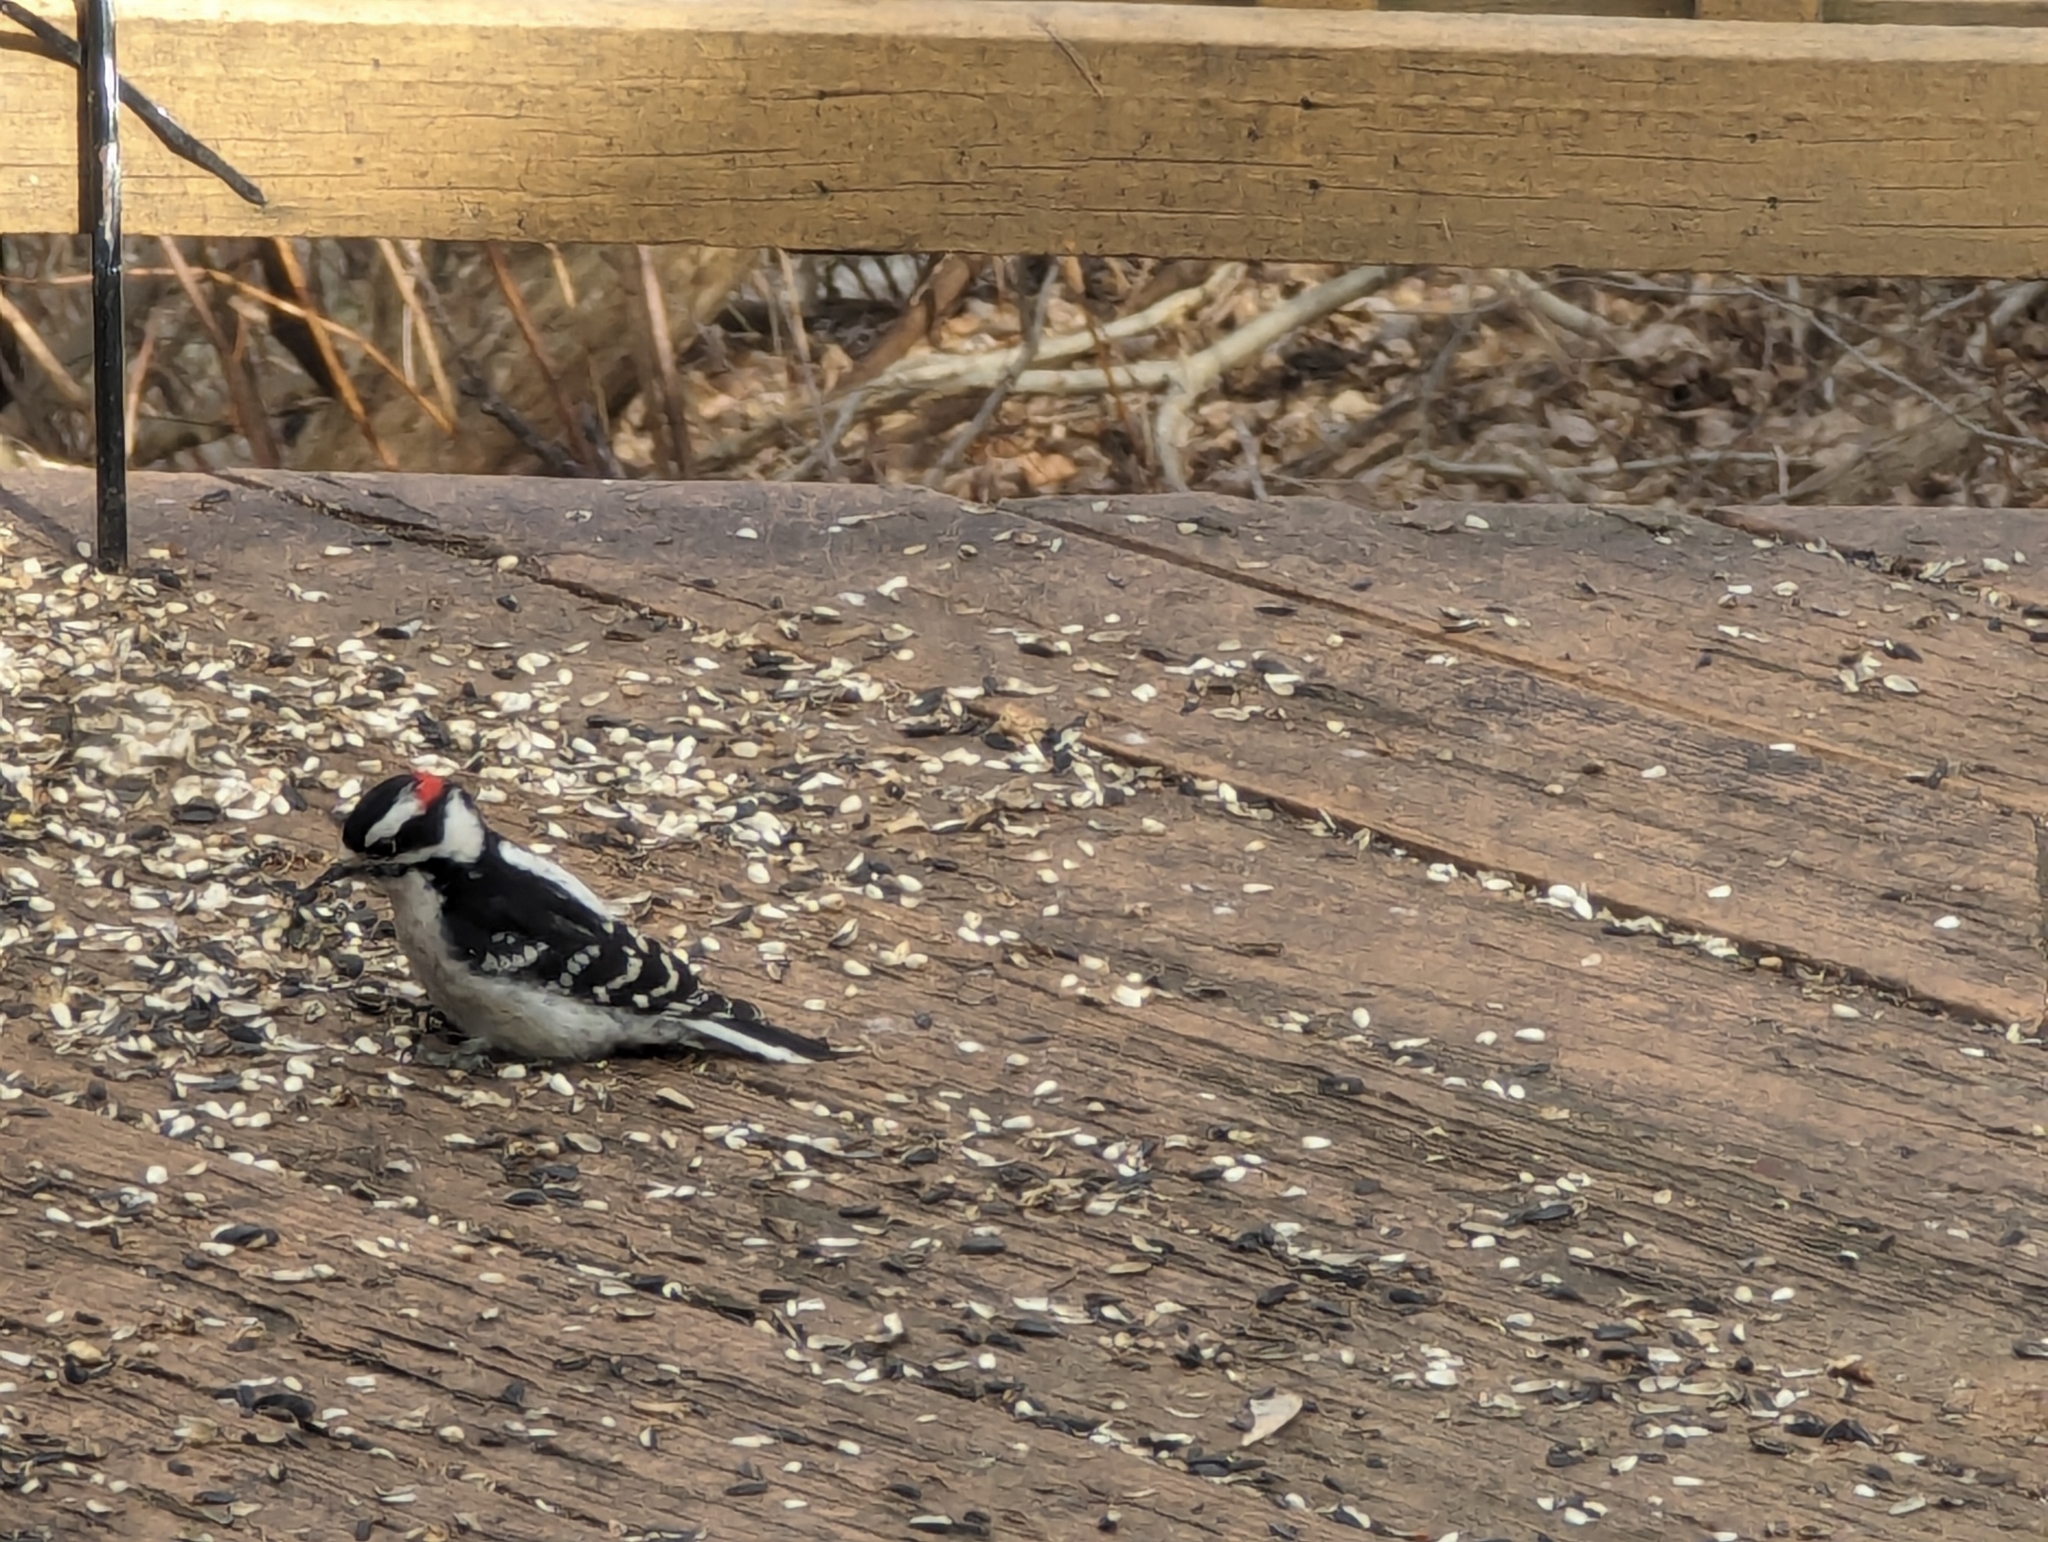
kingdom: Animalia
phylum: Chordata
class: Aves
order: Piciformes
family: Picidae
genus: Dryobates
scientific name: Dryobates pubescens
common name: Downy woodpecker
